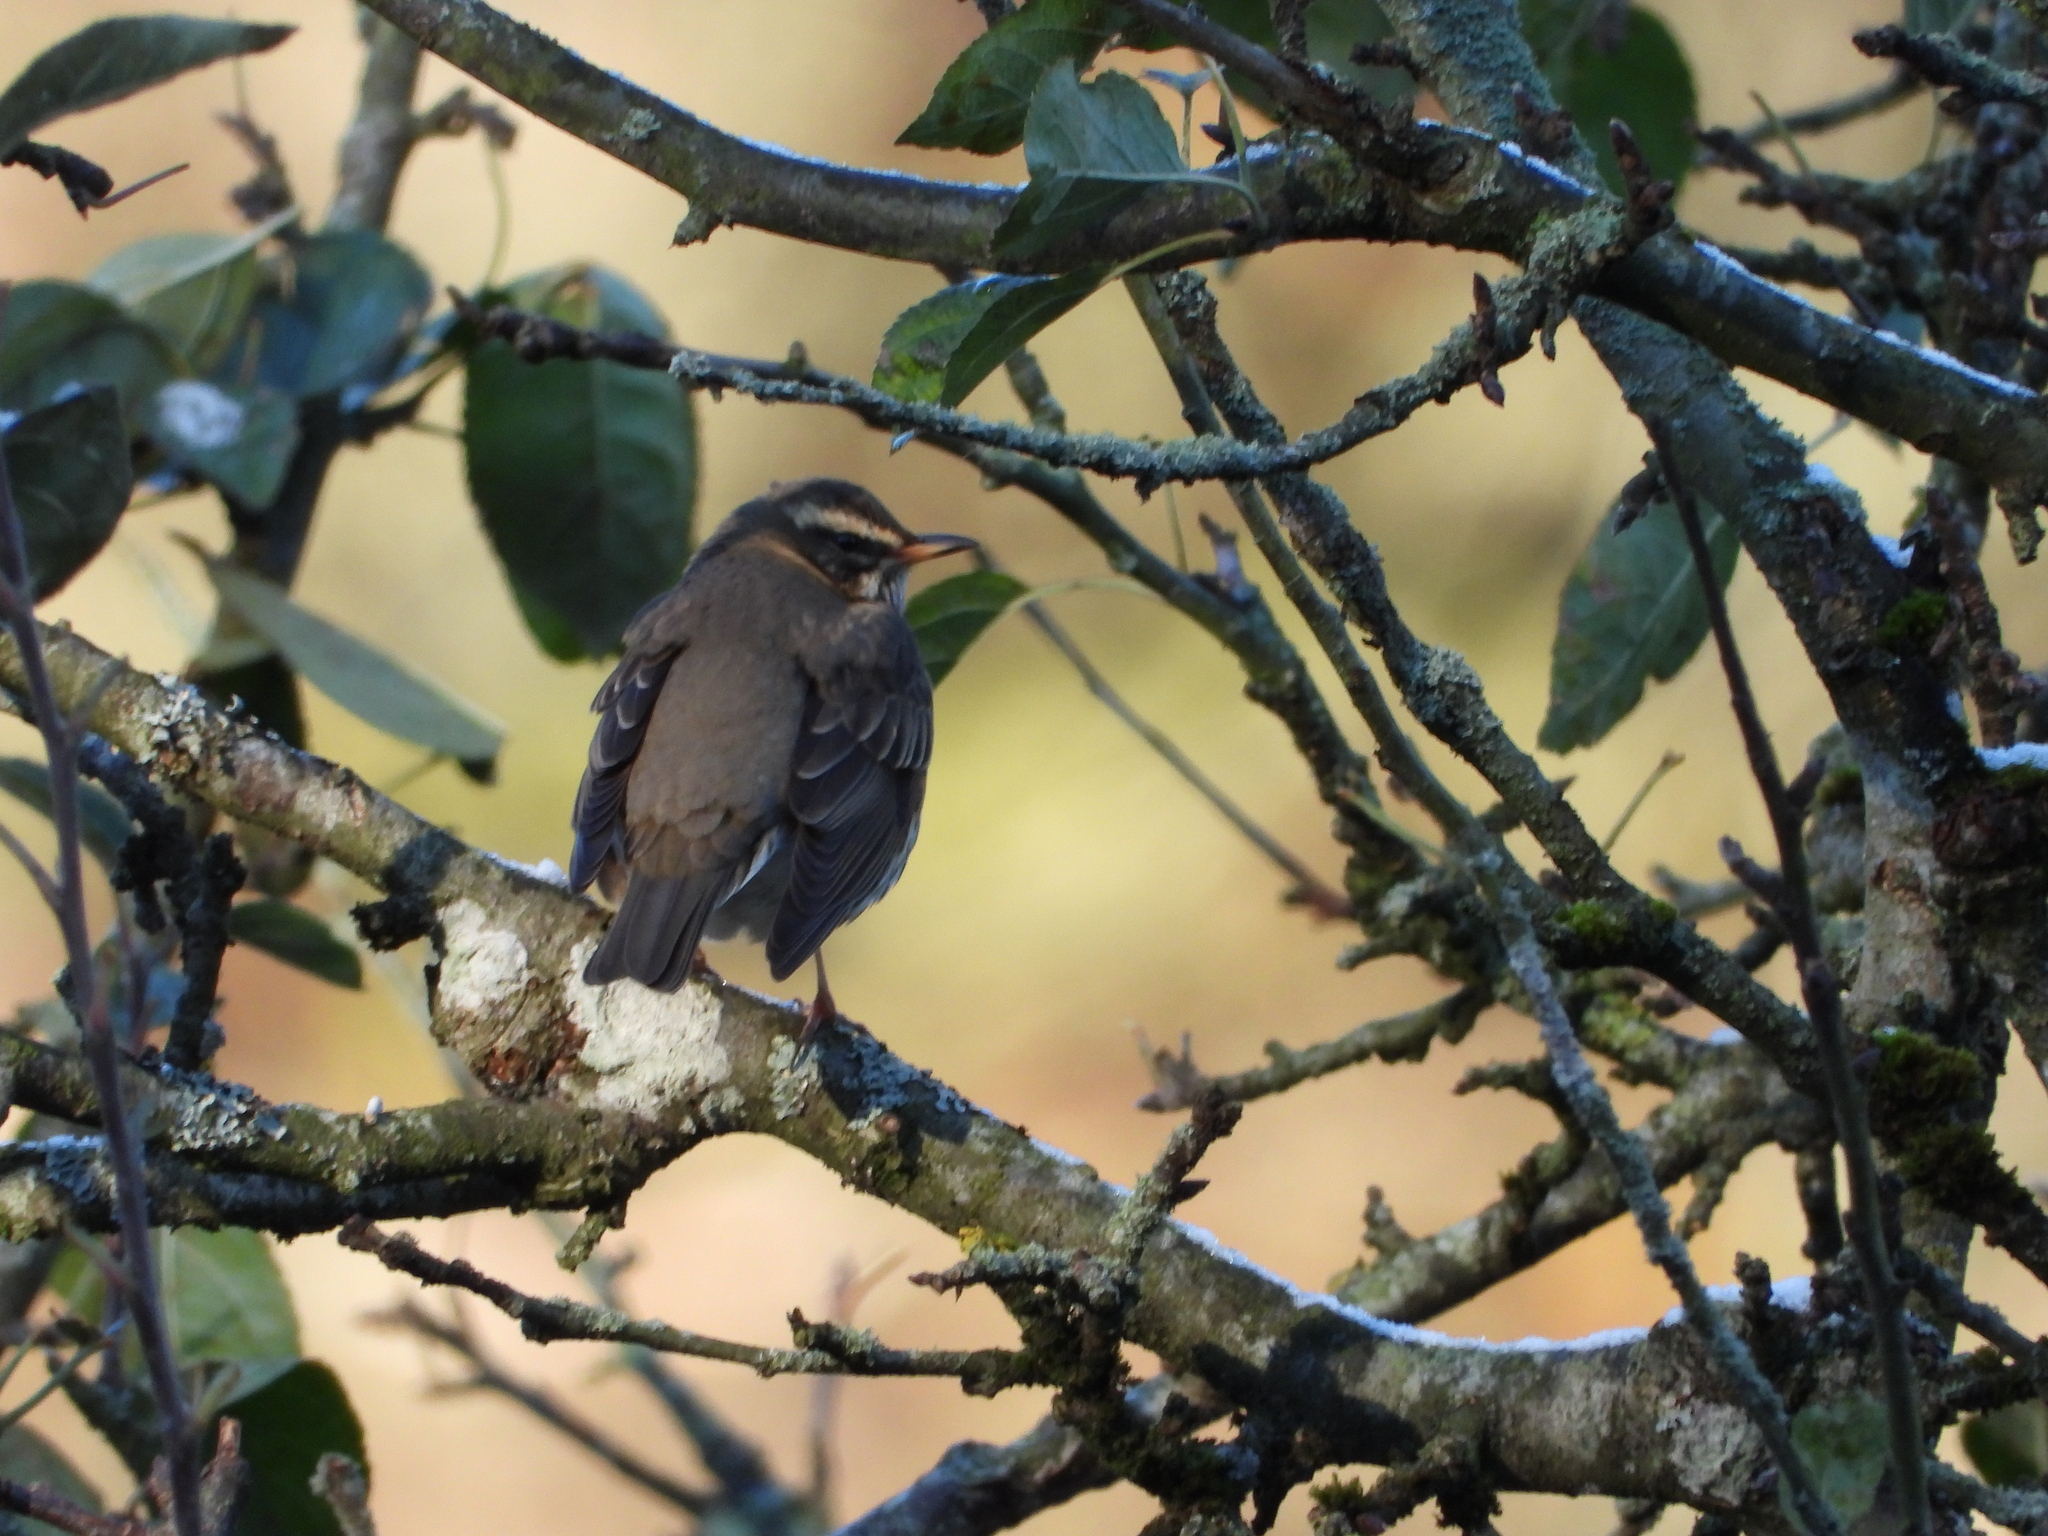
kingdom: Animalia
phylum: Chordata
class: Aves
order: Passeriformes
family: Turdidae
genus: Turdus
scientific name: Turdus iliacus
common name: Redwing
